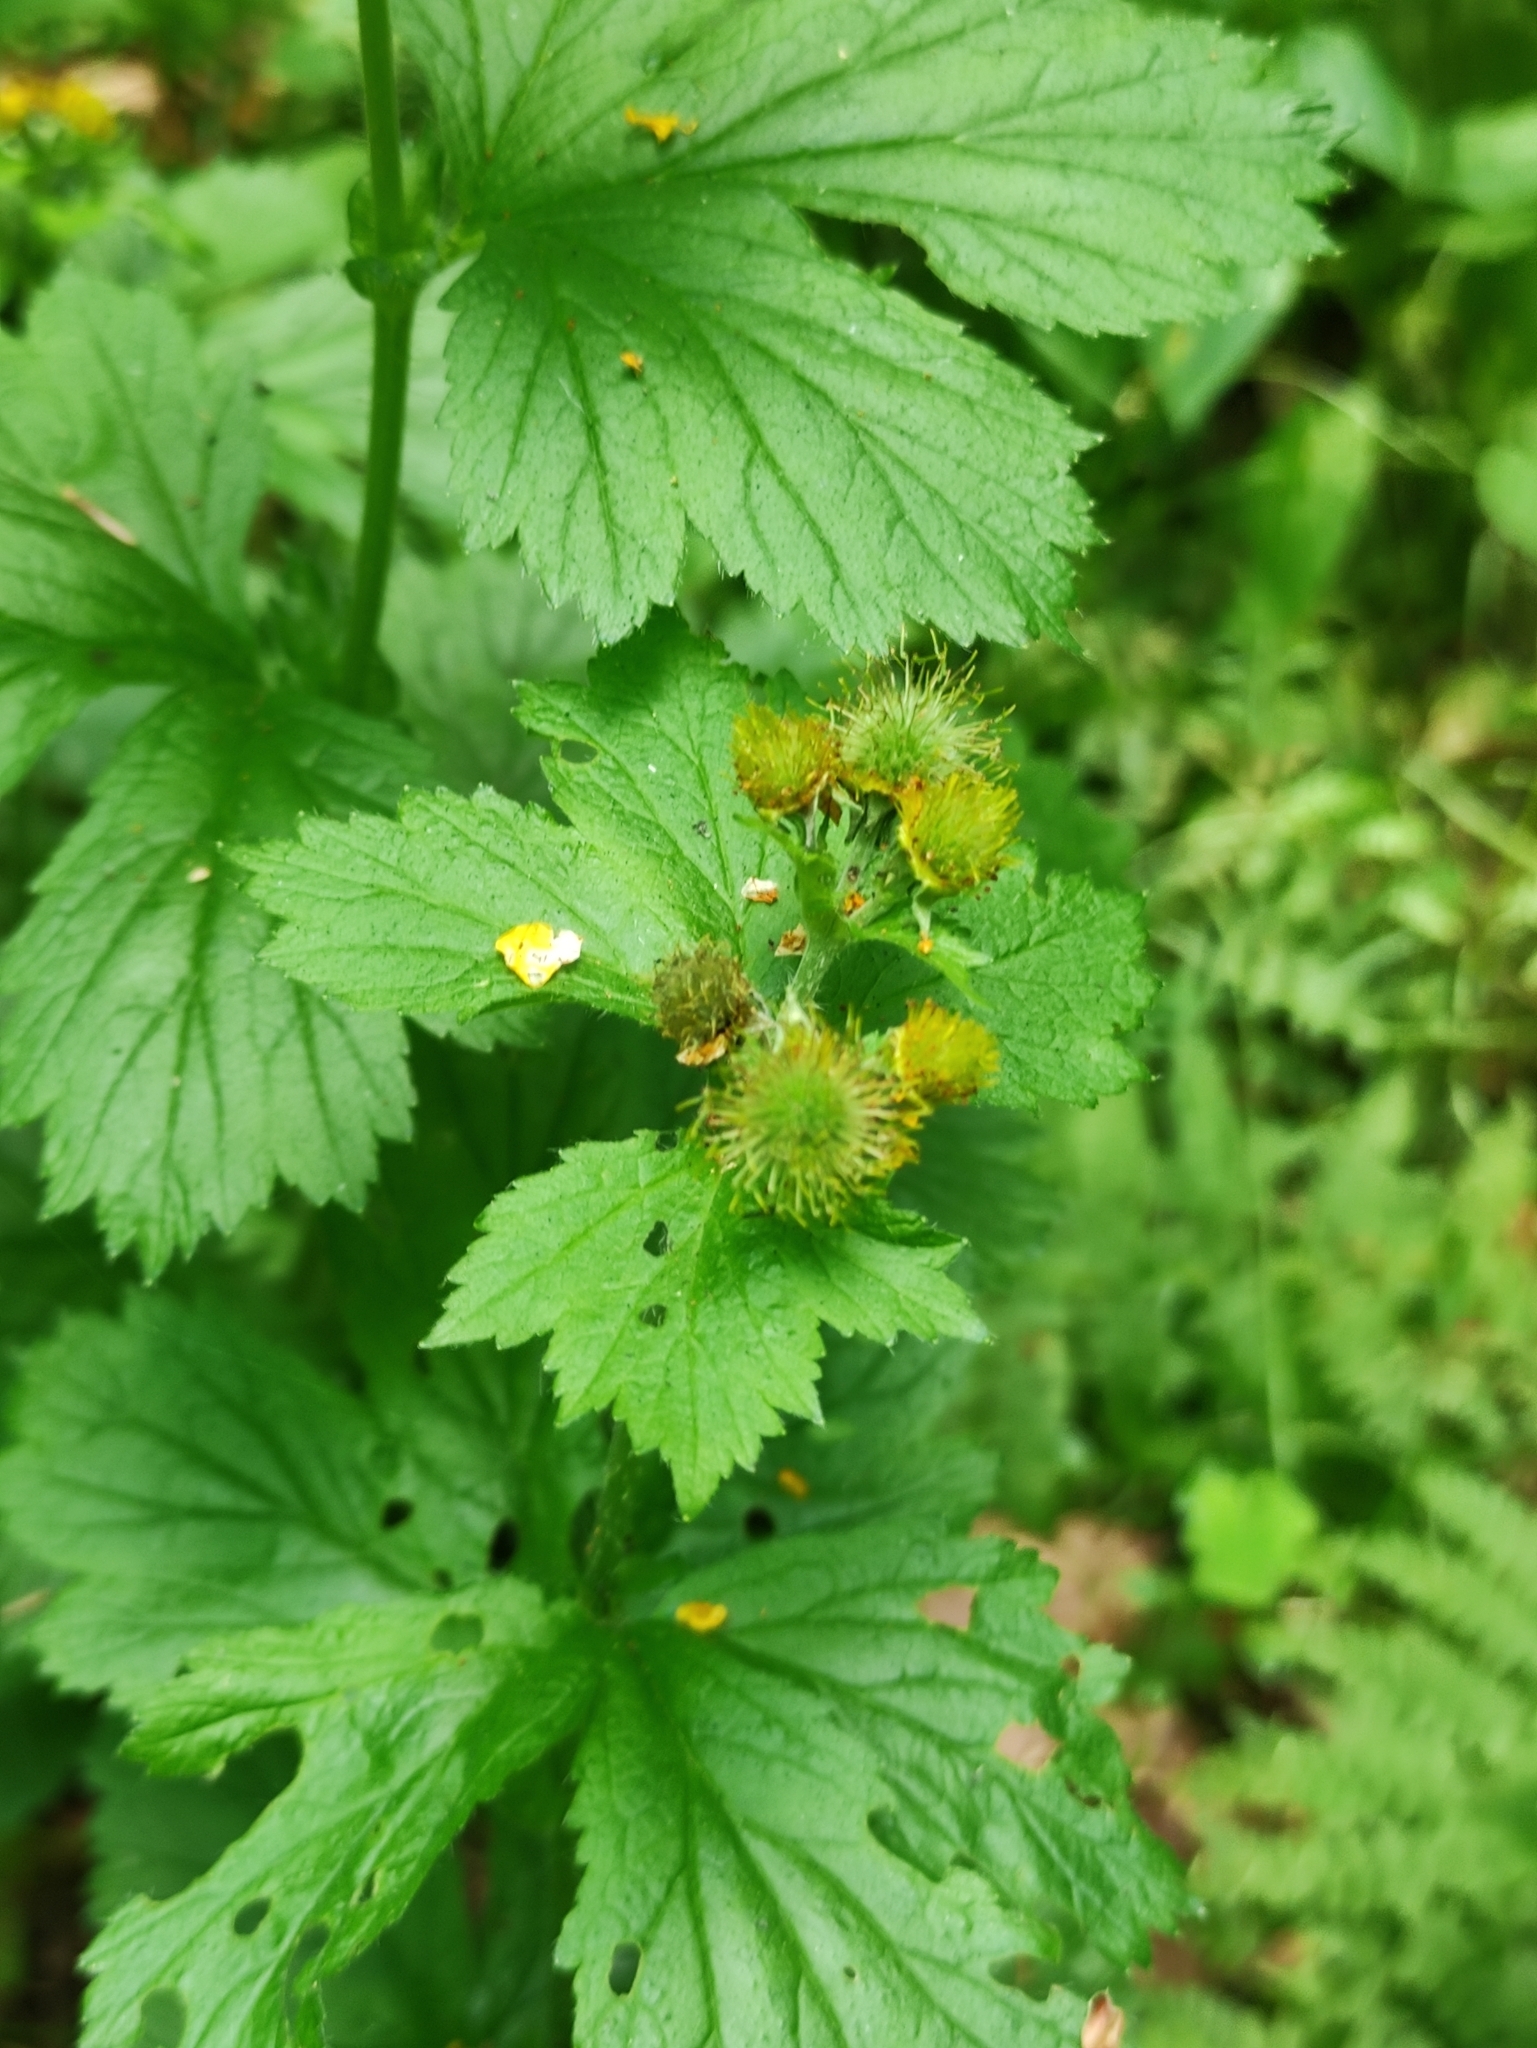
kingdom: Plantae
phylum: Tracheophyta
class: Magnoliopsida
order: Rosales
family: Rosaceae
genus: Geum
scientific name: Geum macrophyllum
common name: Large-leaved avens
